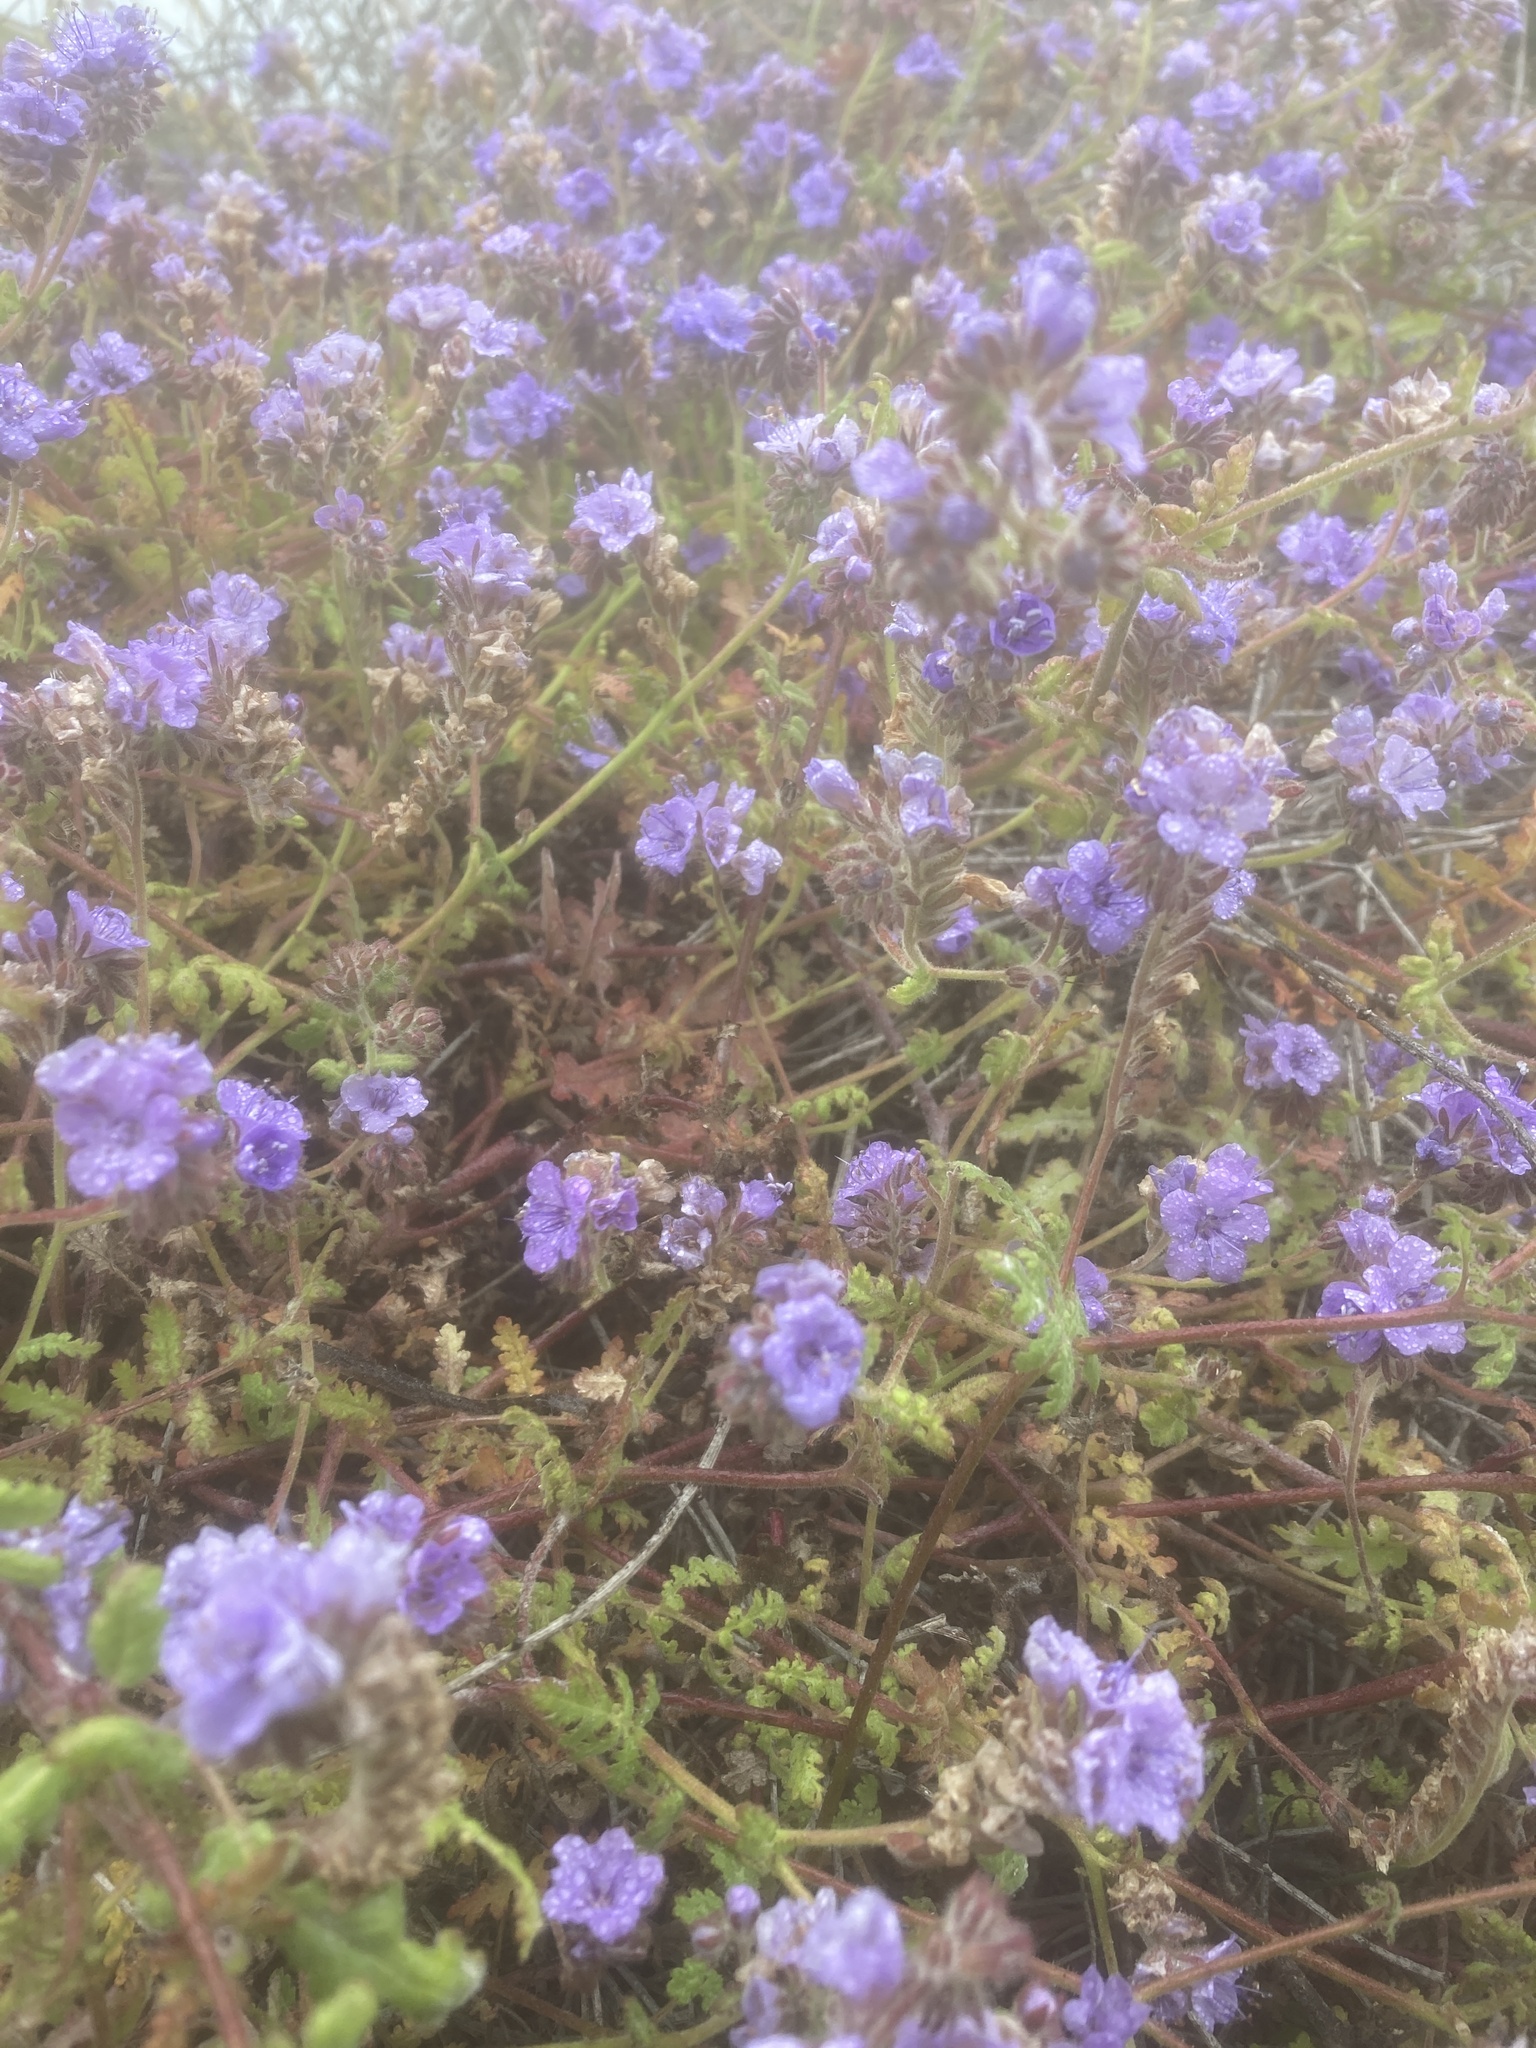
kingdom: Plantae
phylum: Tracheophyta
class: Magnoliopsida
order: Boraginales
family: Hydrophyllaceae
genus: Phacelia
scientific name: Phacelia distans
